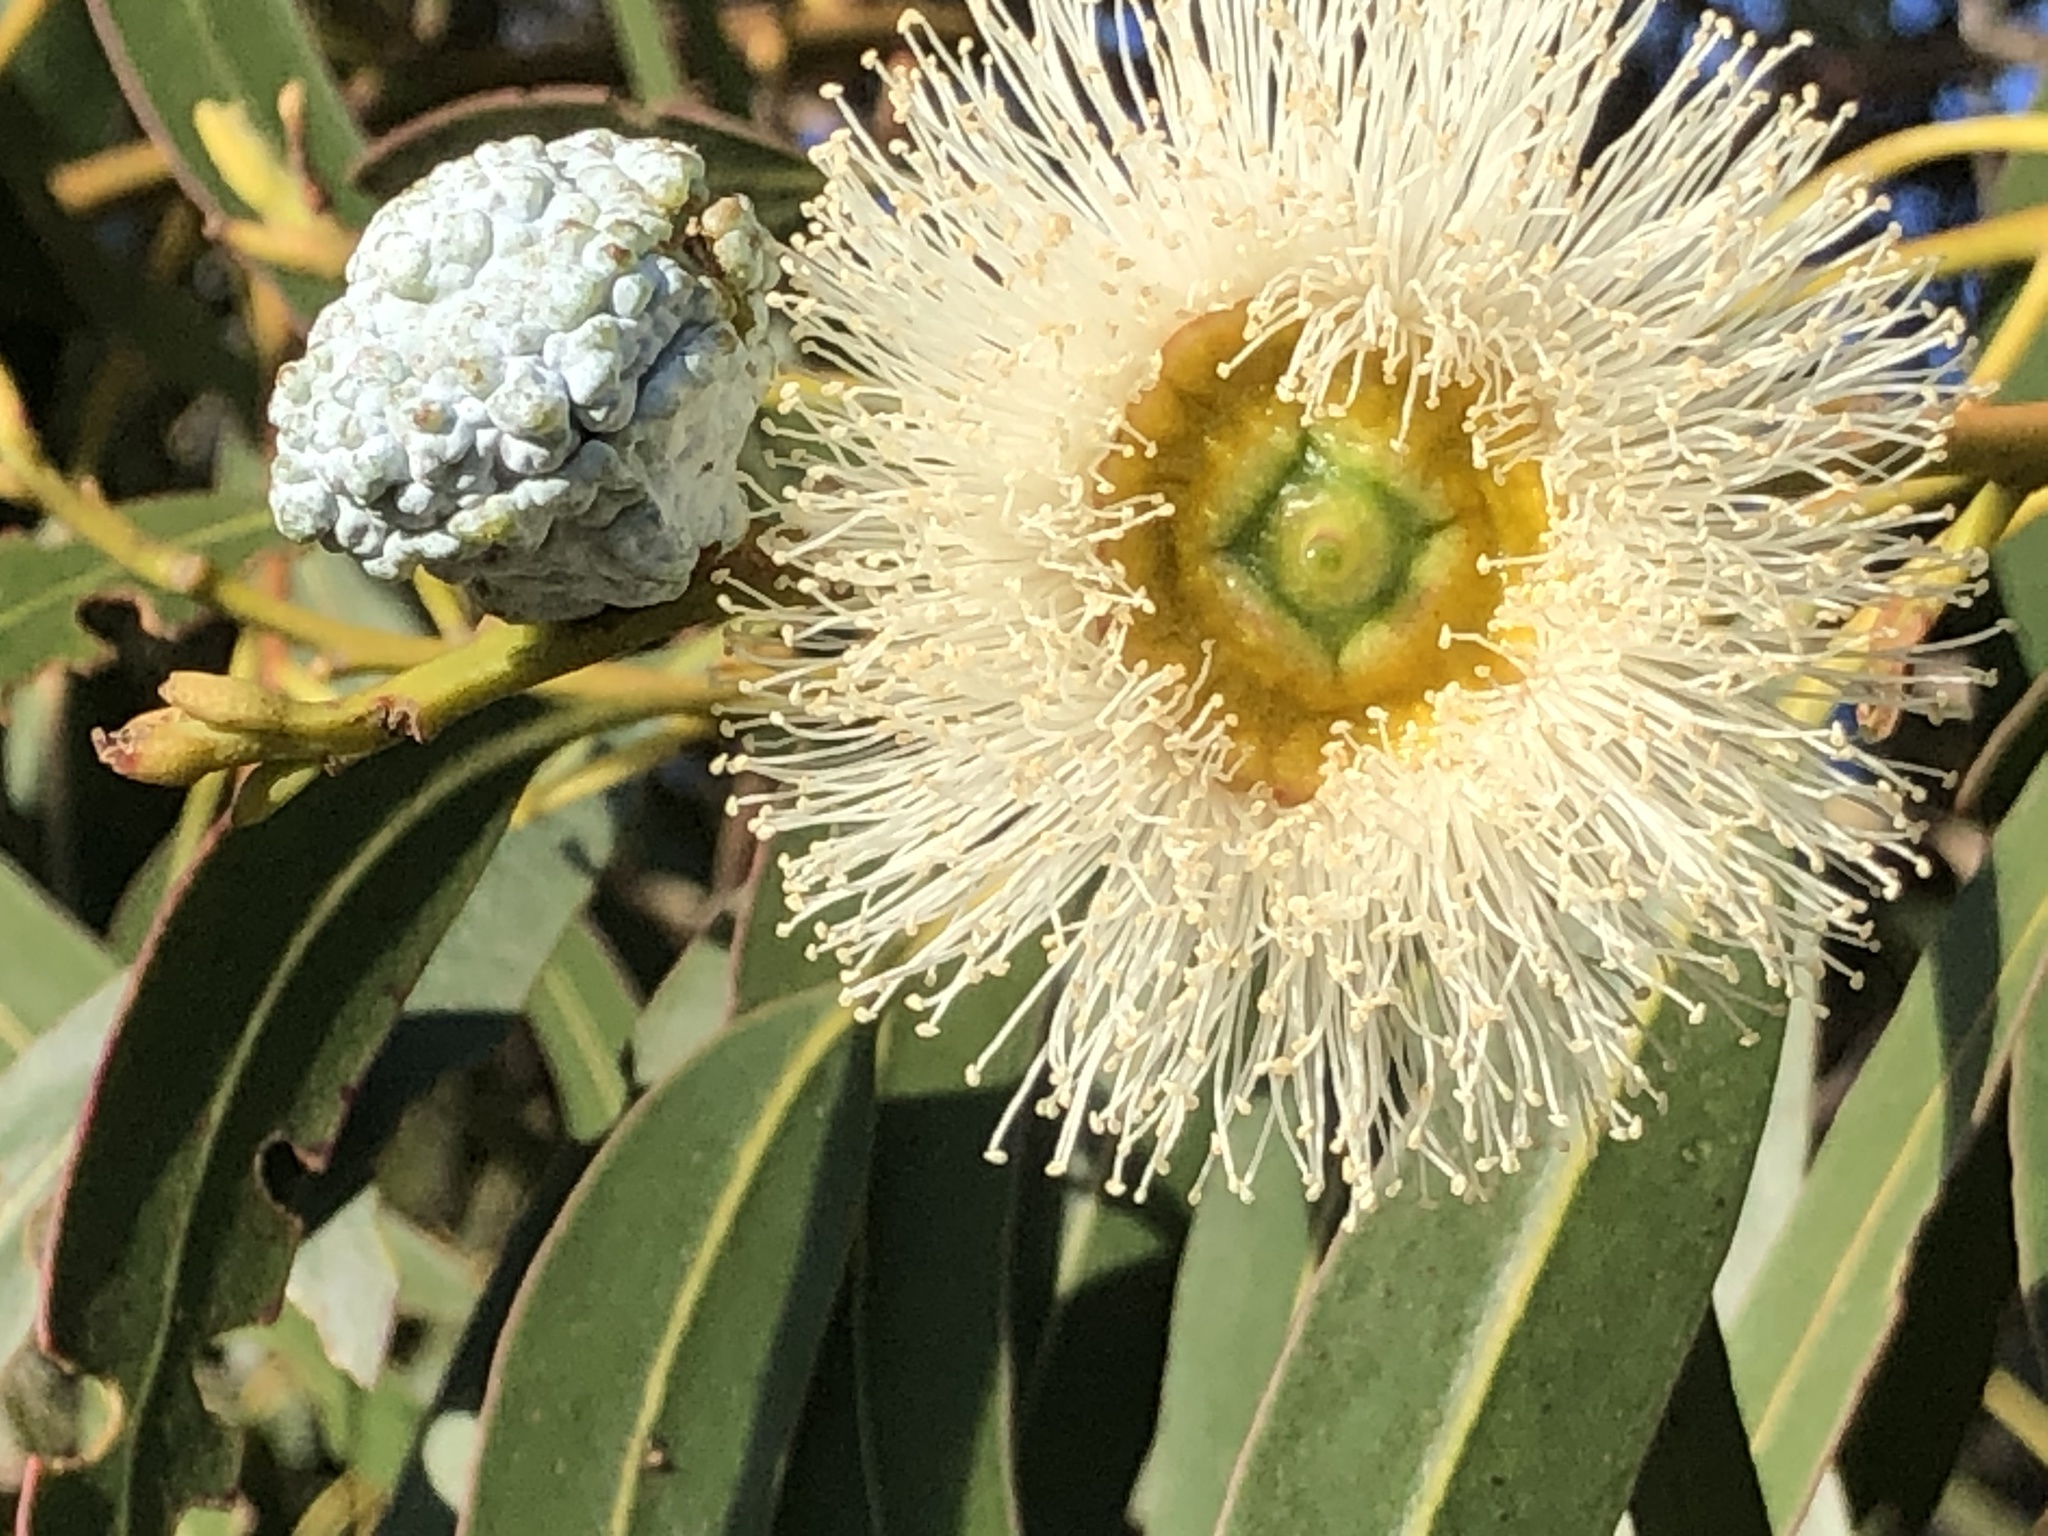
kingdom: Plantae
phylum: Tracheophyta
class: Magnoliopsida
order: Myrtales
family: Myrtaceae
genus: Eucalyptus
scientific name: Eucalyptus globulus
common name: Southern blue-gum
